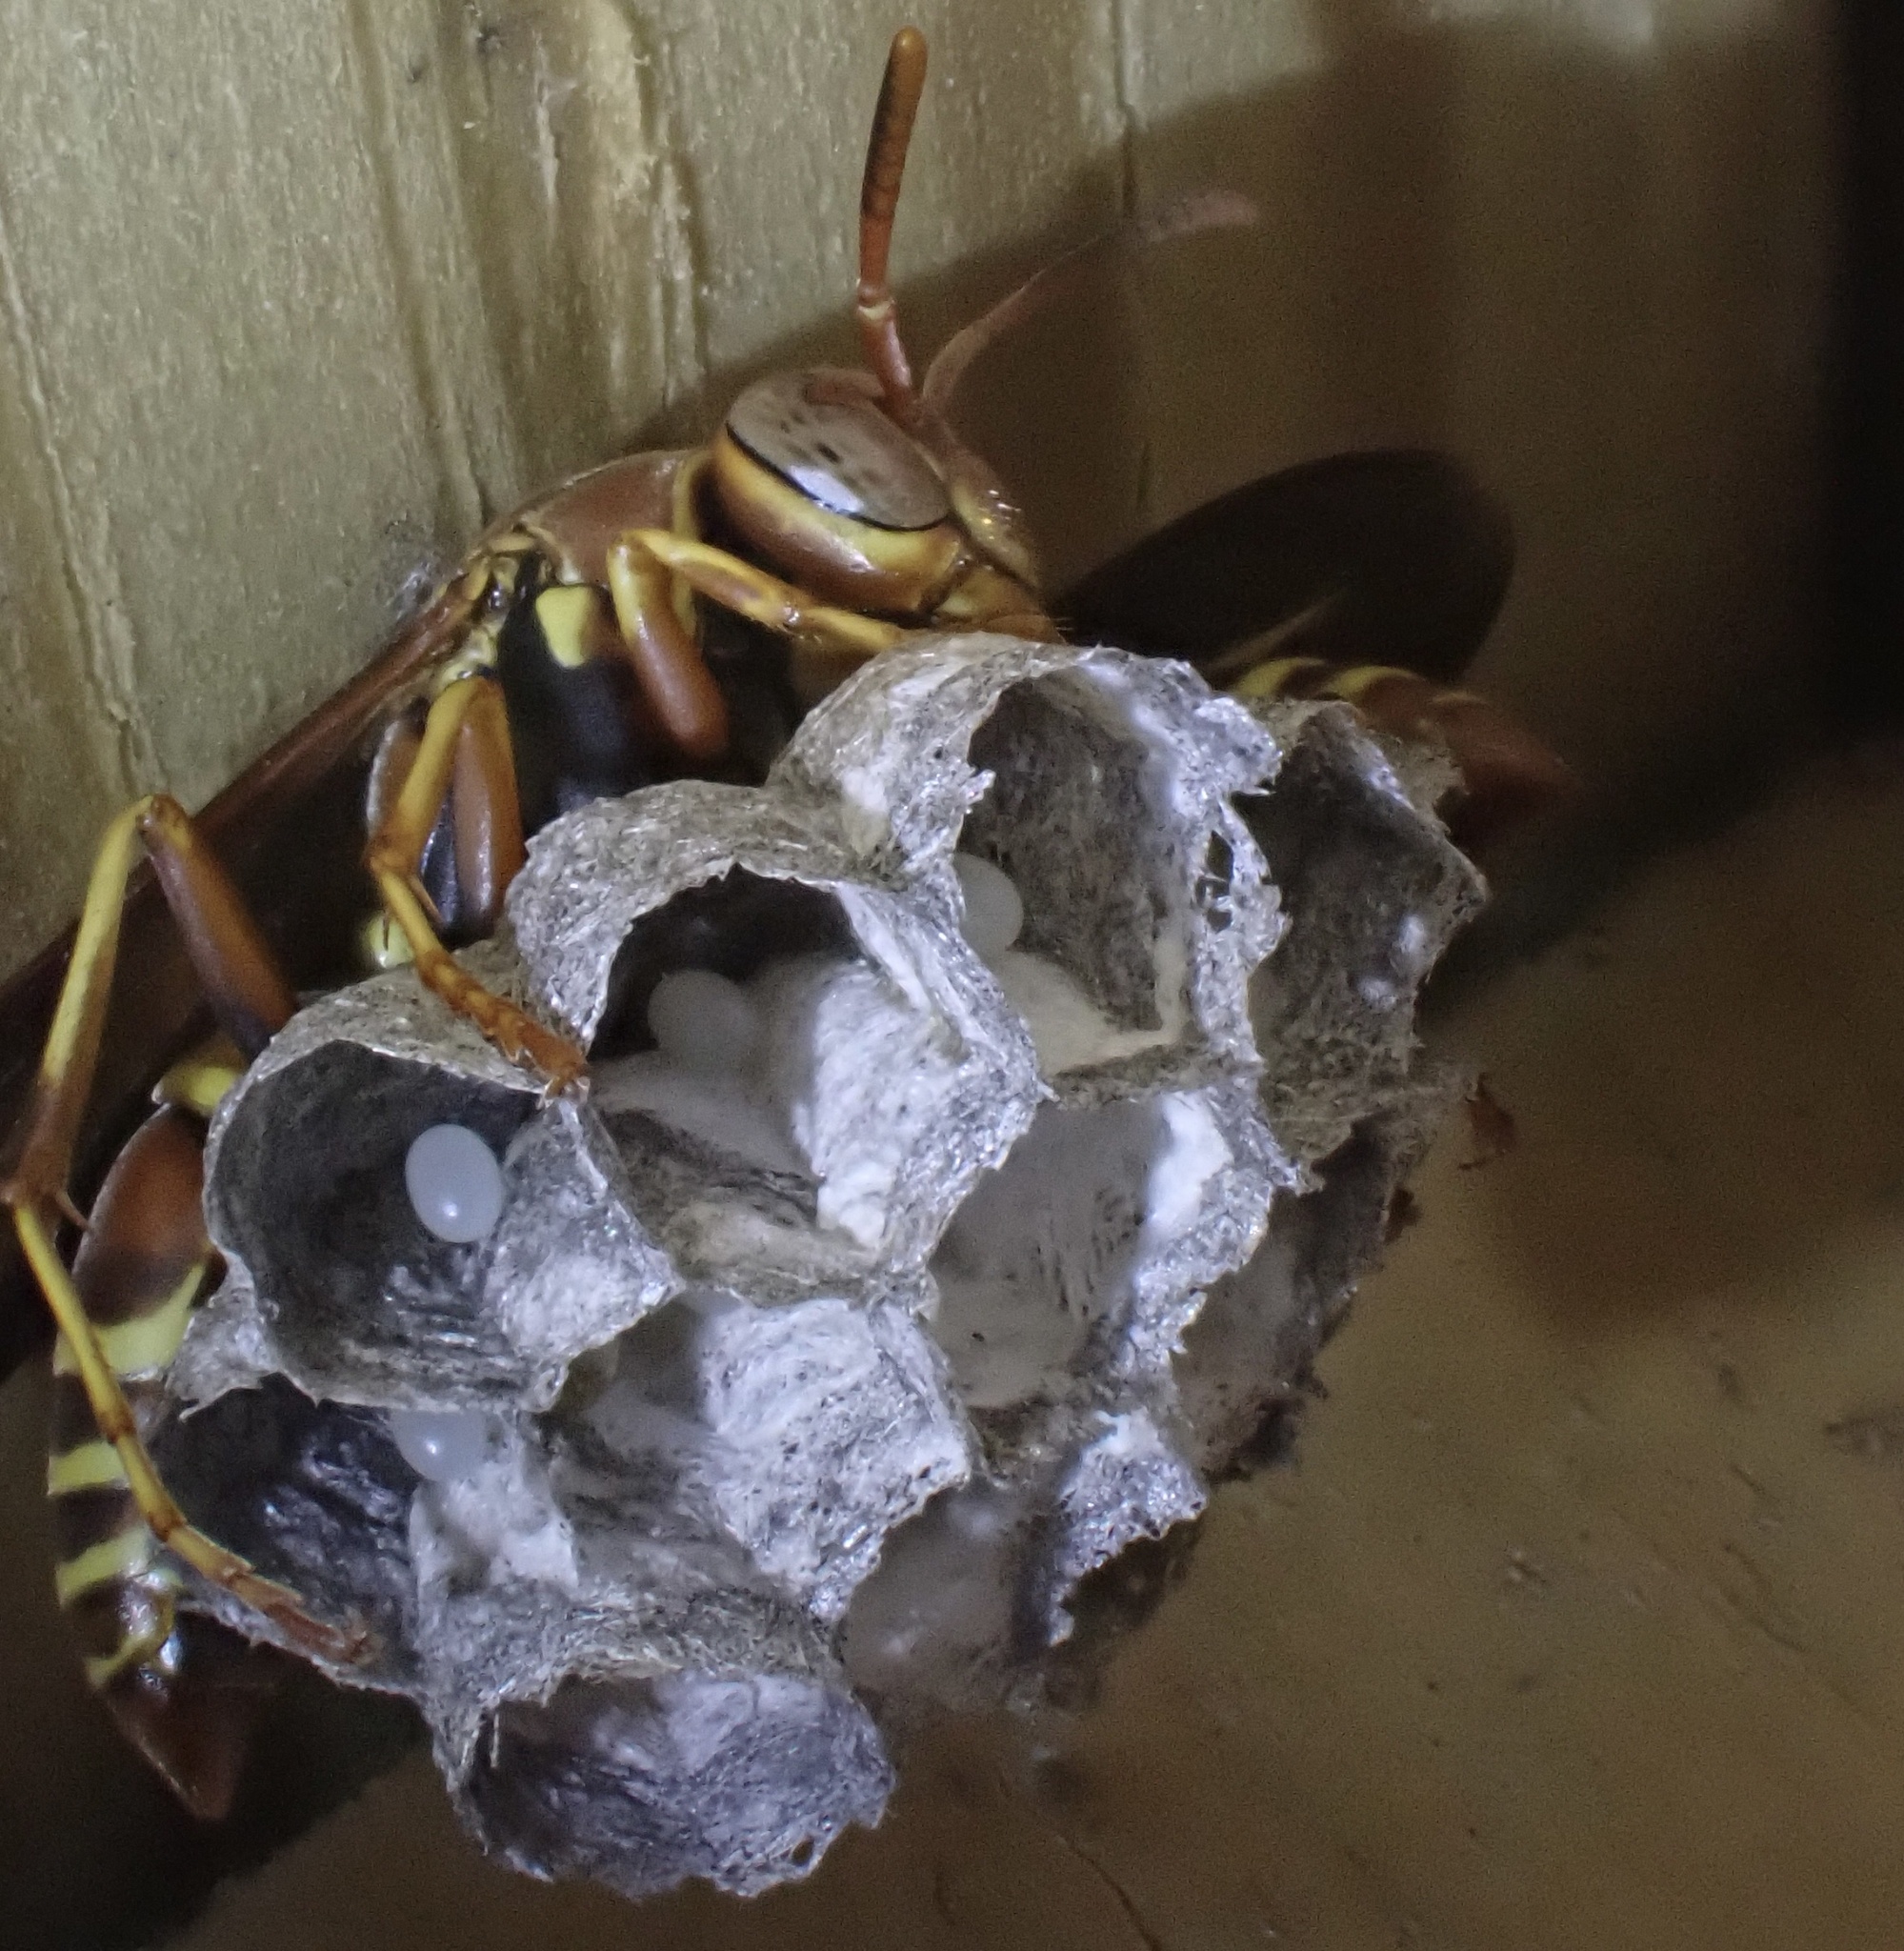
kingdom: Animalia
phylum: Arthropoda
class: Insecta
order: Hymenoptera
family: Eumenidae
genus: Polistes
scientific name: Polistes dorsalis
